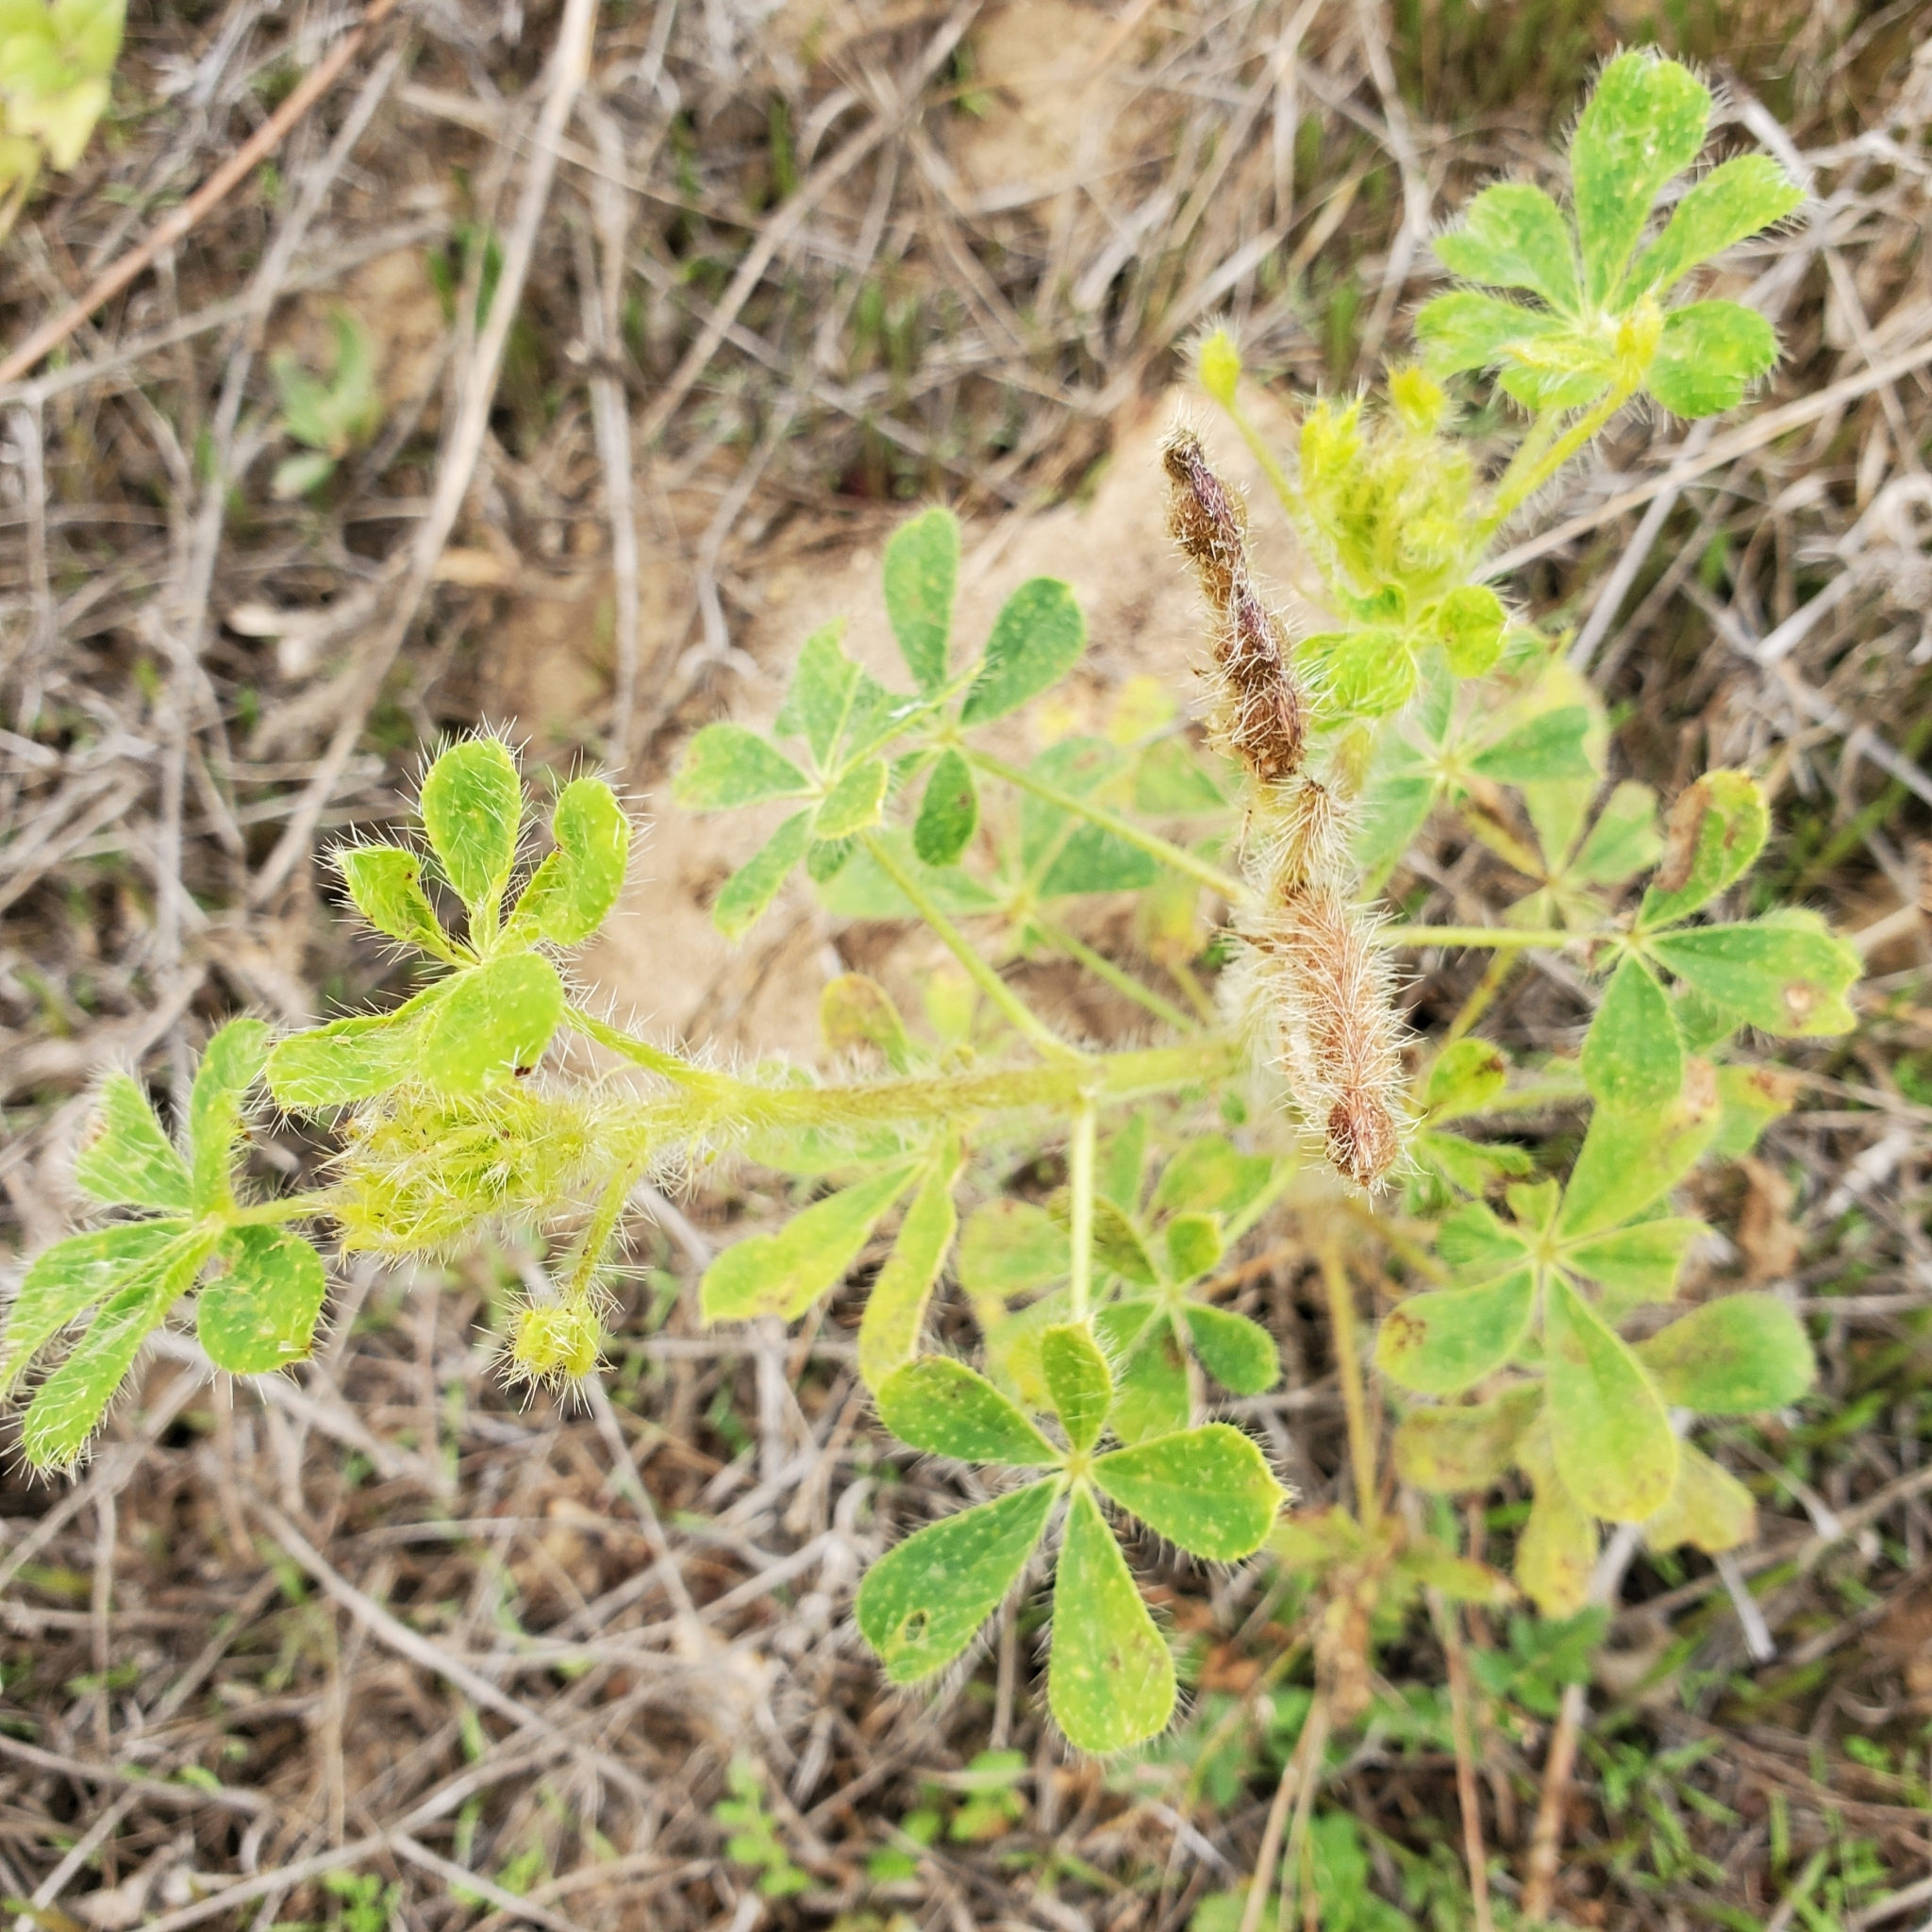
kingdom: Plantae
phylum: Tracheophyta
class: Magnoliopsida
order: Fabales
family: Fabaceae
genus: Lupinus
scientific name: Lupinus hirsutissimus
